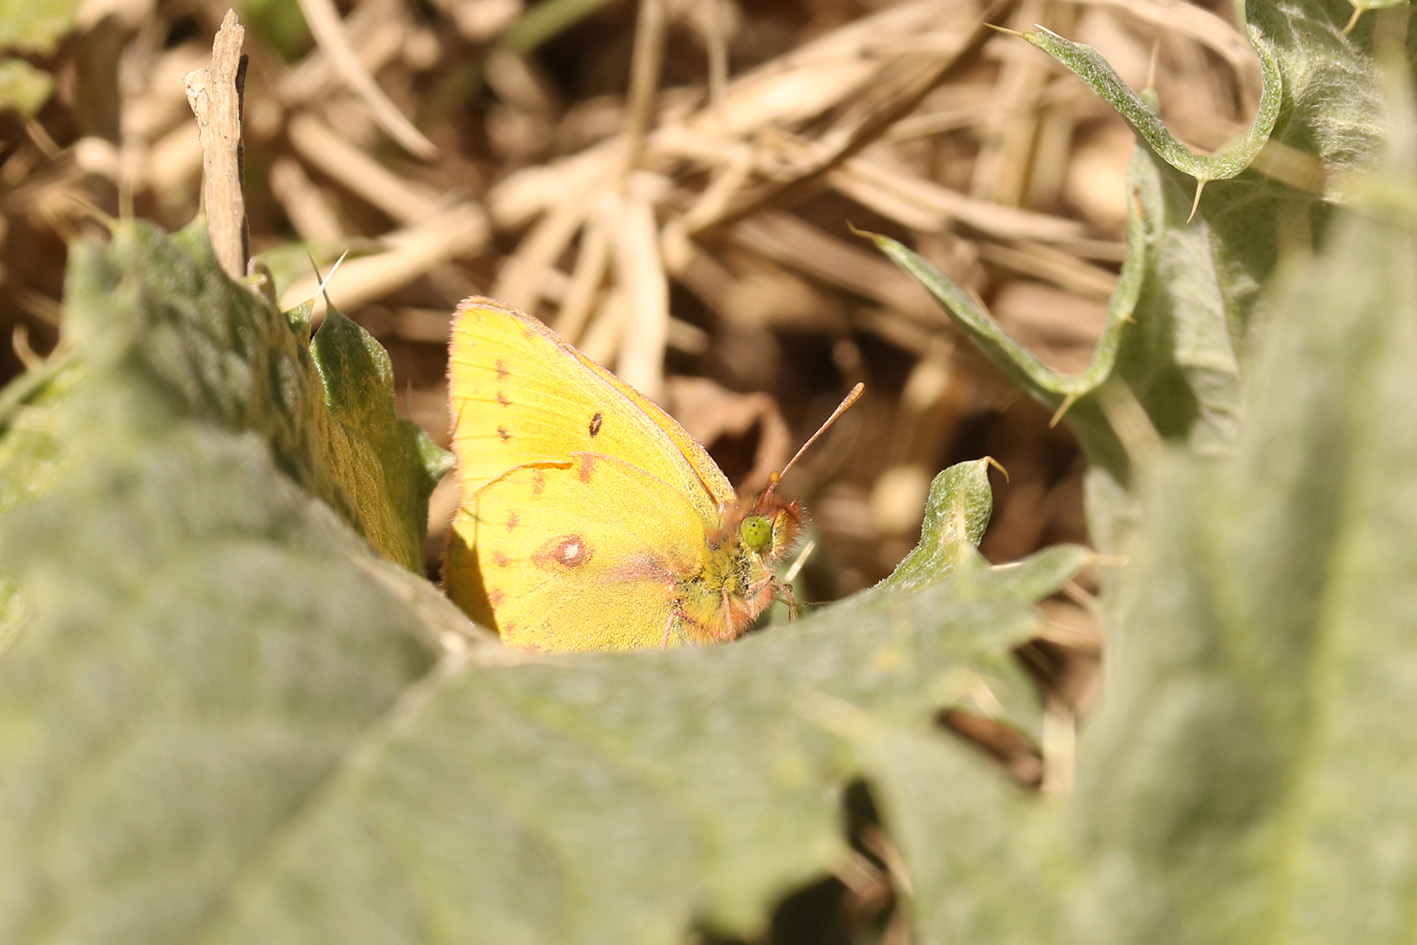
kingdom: Animalia
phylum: Arthropoda
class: Insecta
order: Lepidoptera
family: Pieridae
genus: Colias
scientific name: Colias lesbia
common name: Lesbia clouded yellow
